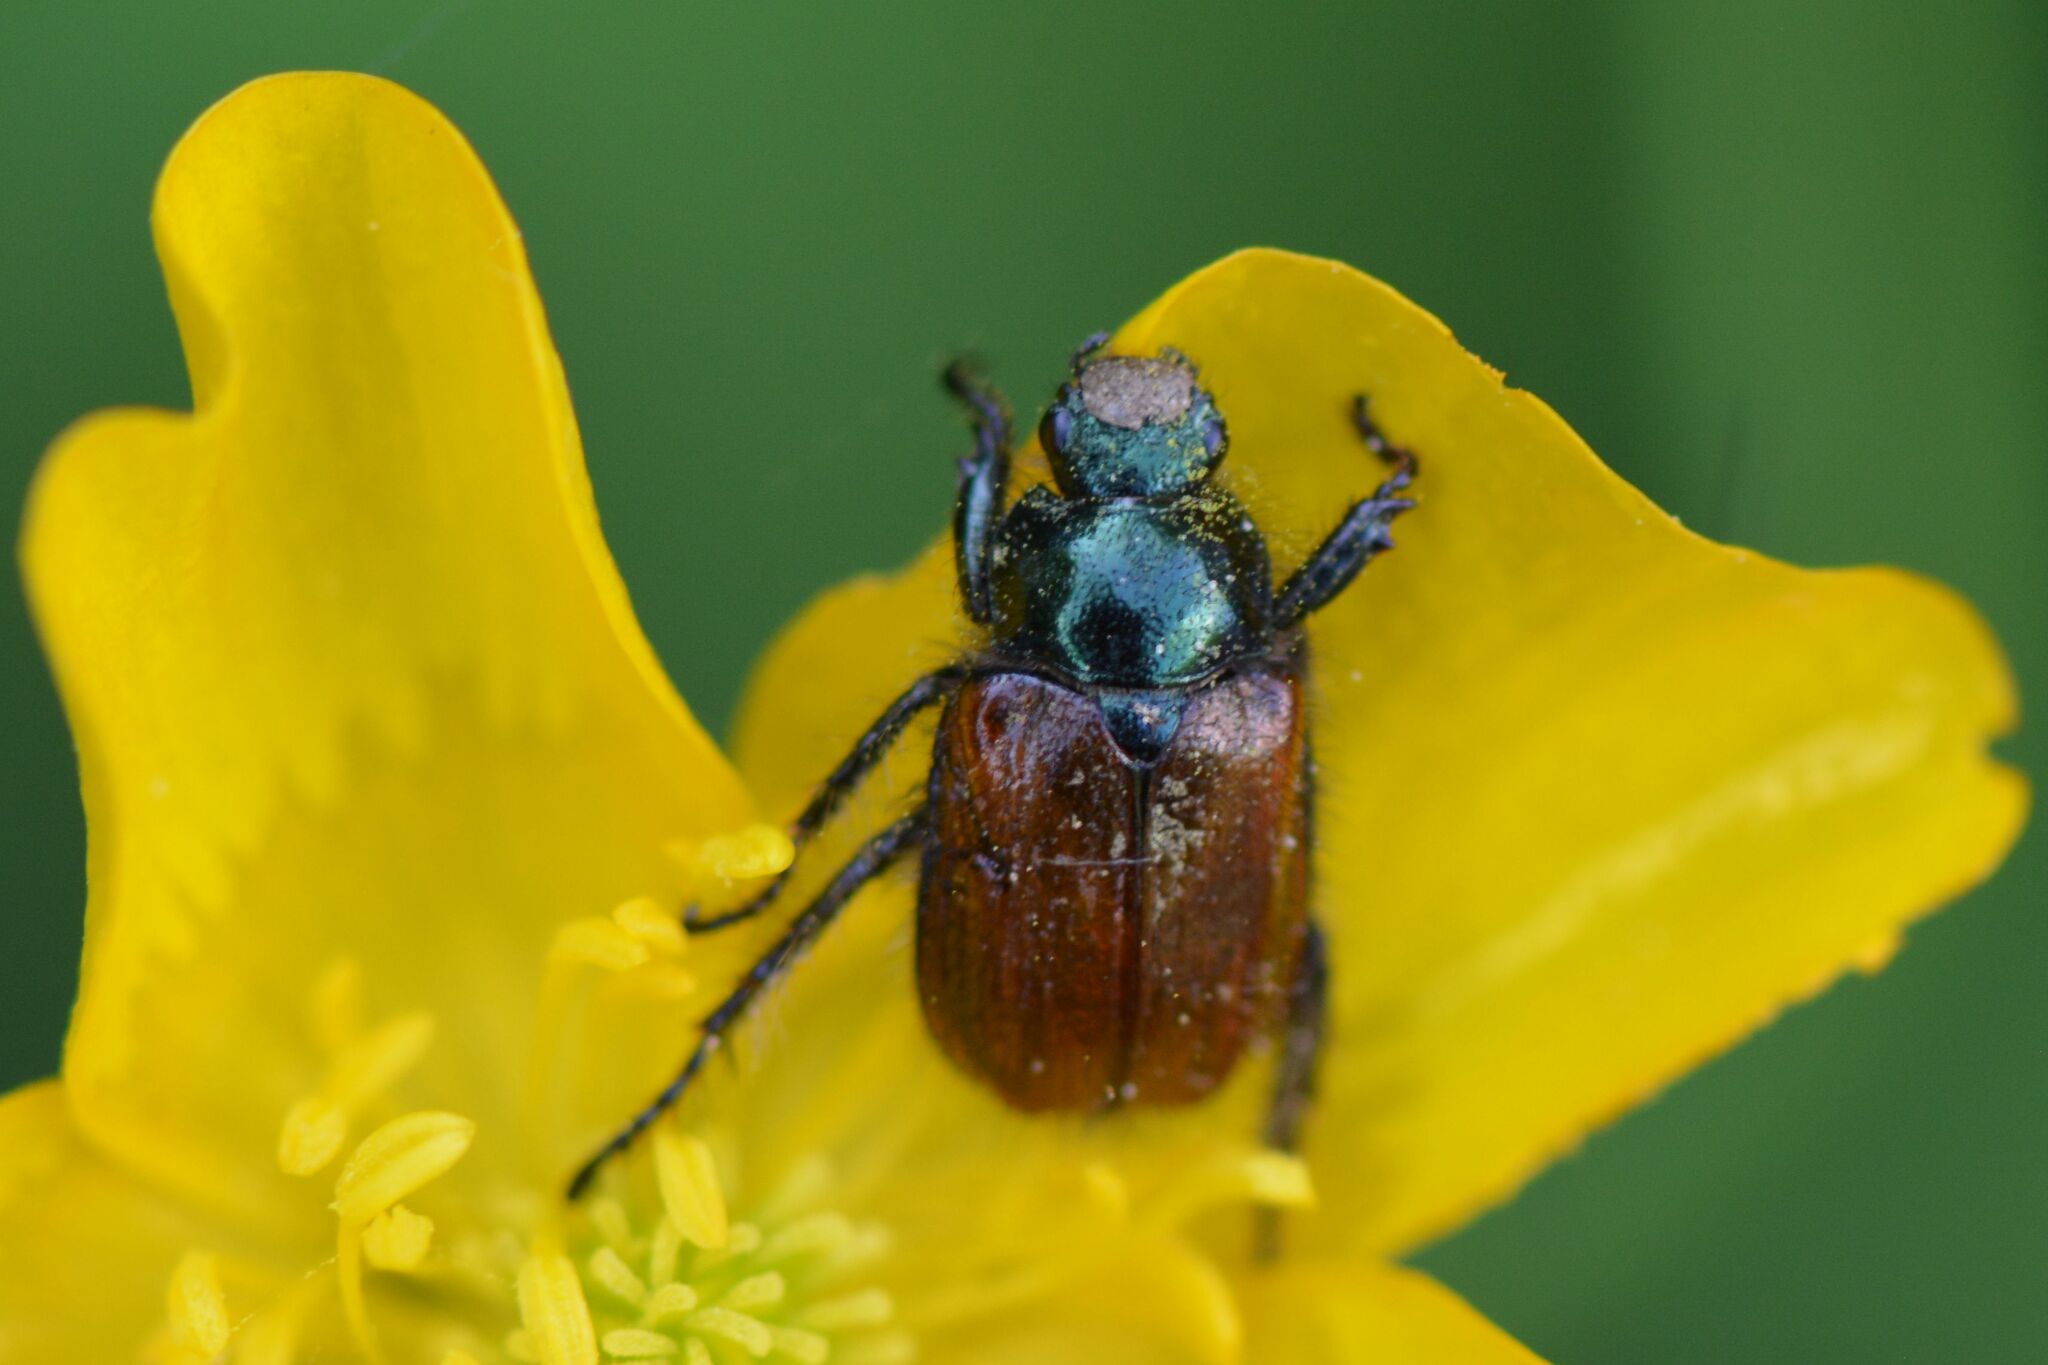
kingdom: Animalia
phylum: Arthropoda
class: Insecta
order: Coleoptera
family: Scarabaeidae
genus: Phyllopertha
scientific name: Phyllopertha horticola
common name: Garden chafer
